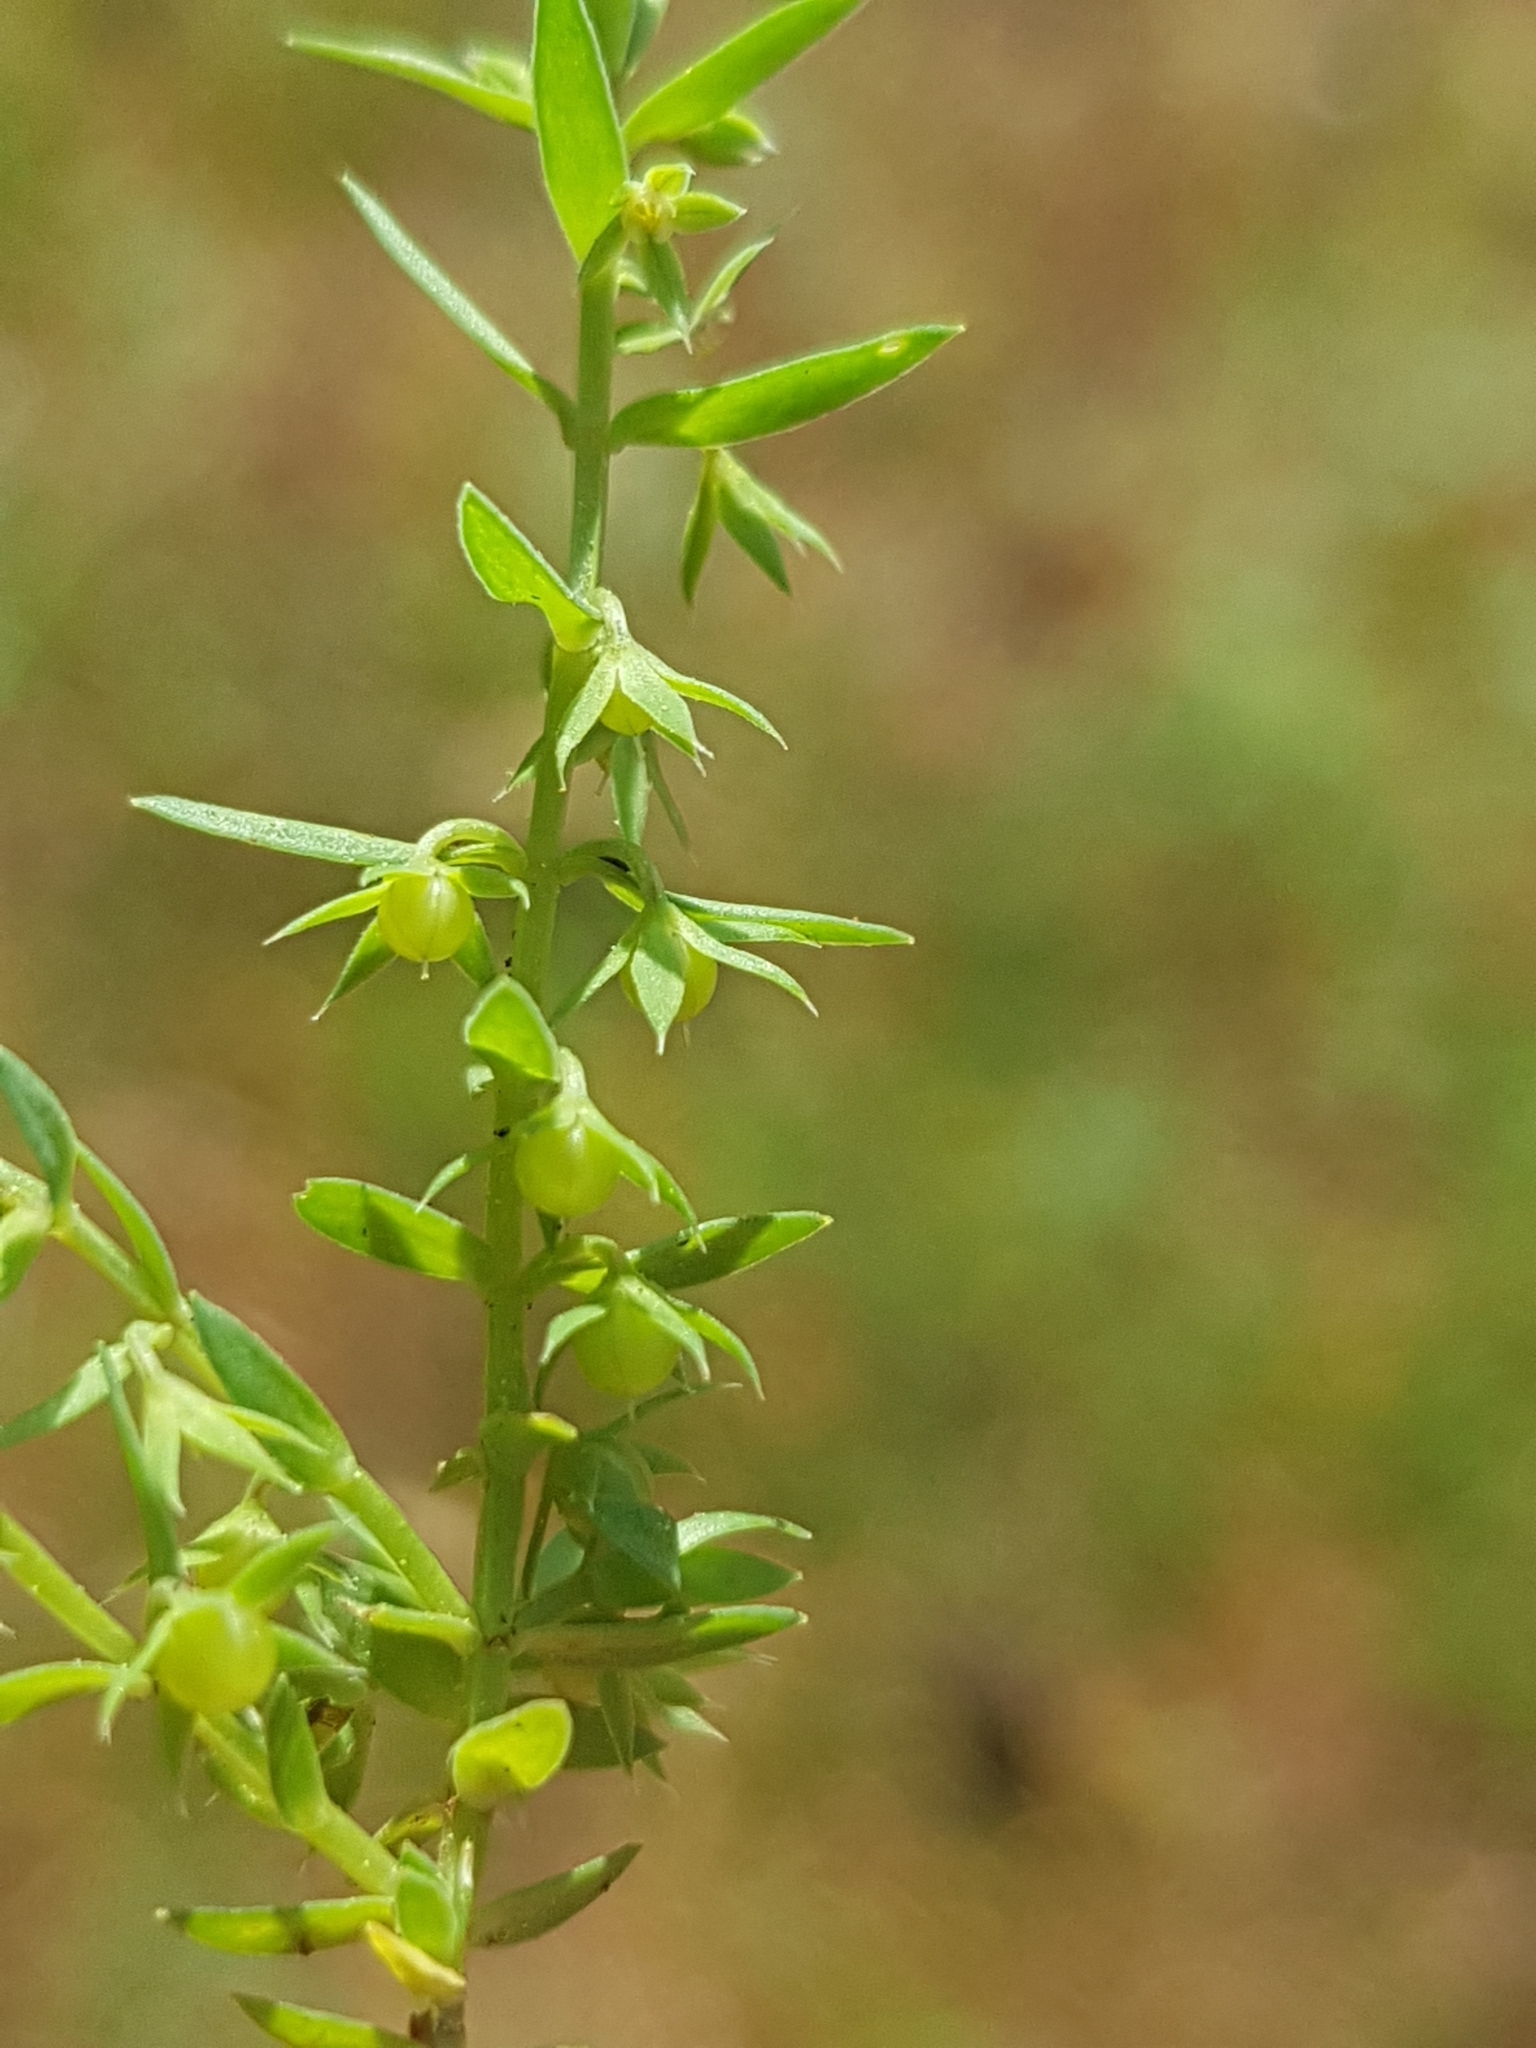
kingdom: Plantae
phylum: Tracheophyta
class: Magnoliopsida
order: Ericales
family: Primulaceae
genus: Lysimachia
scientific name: Lysimachia linum-stellatum
